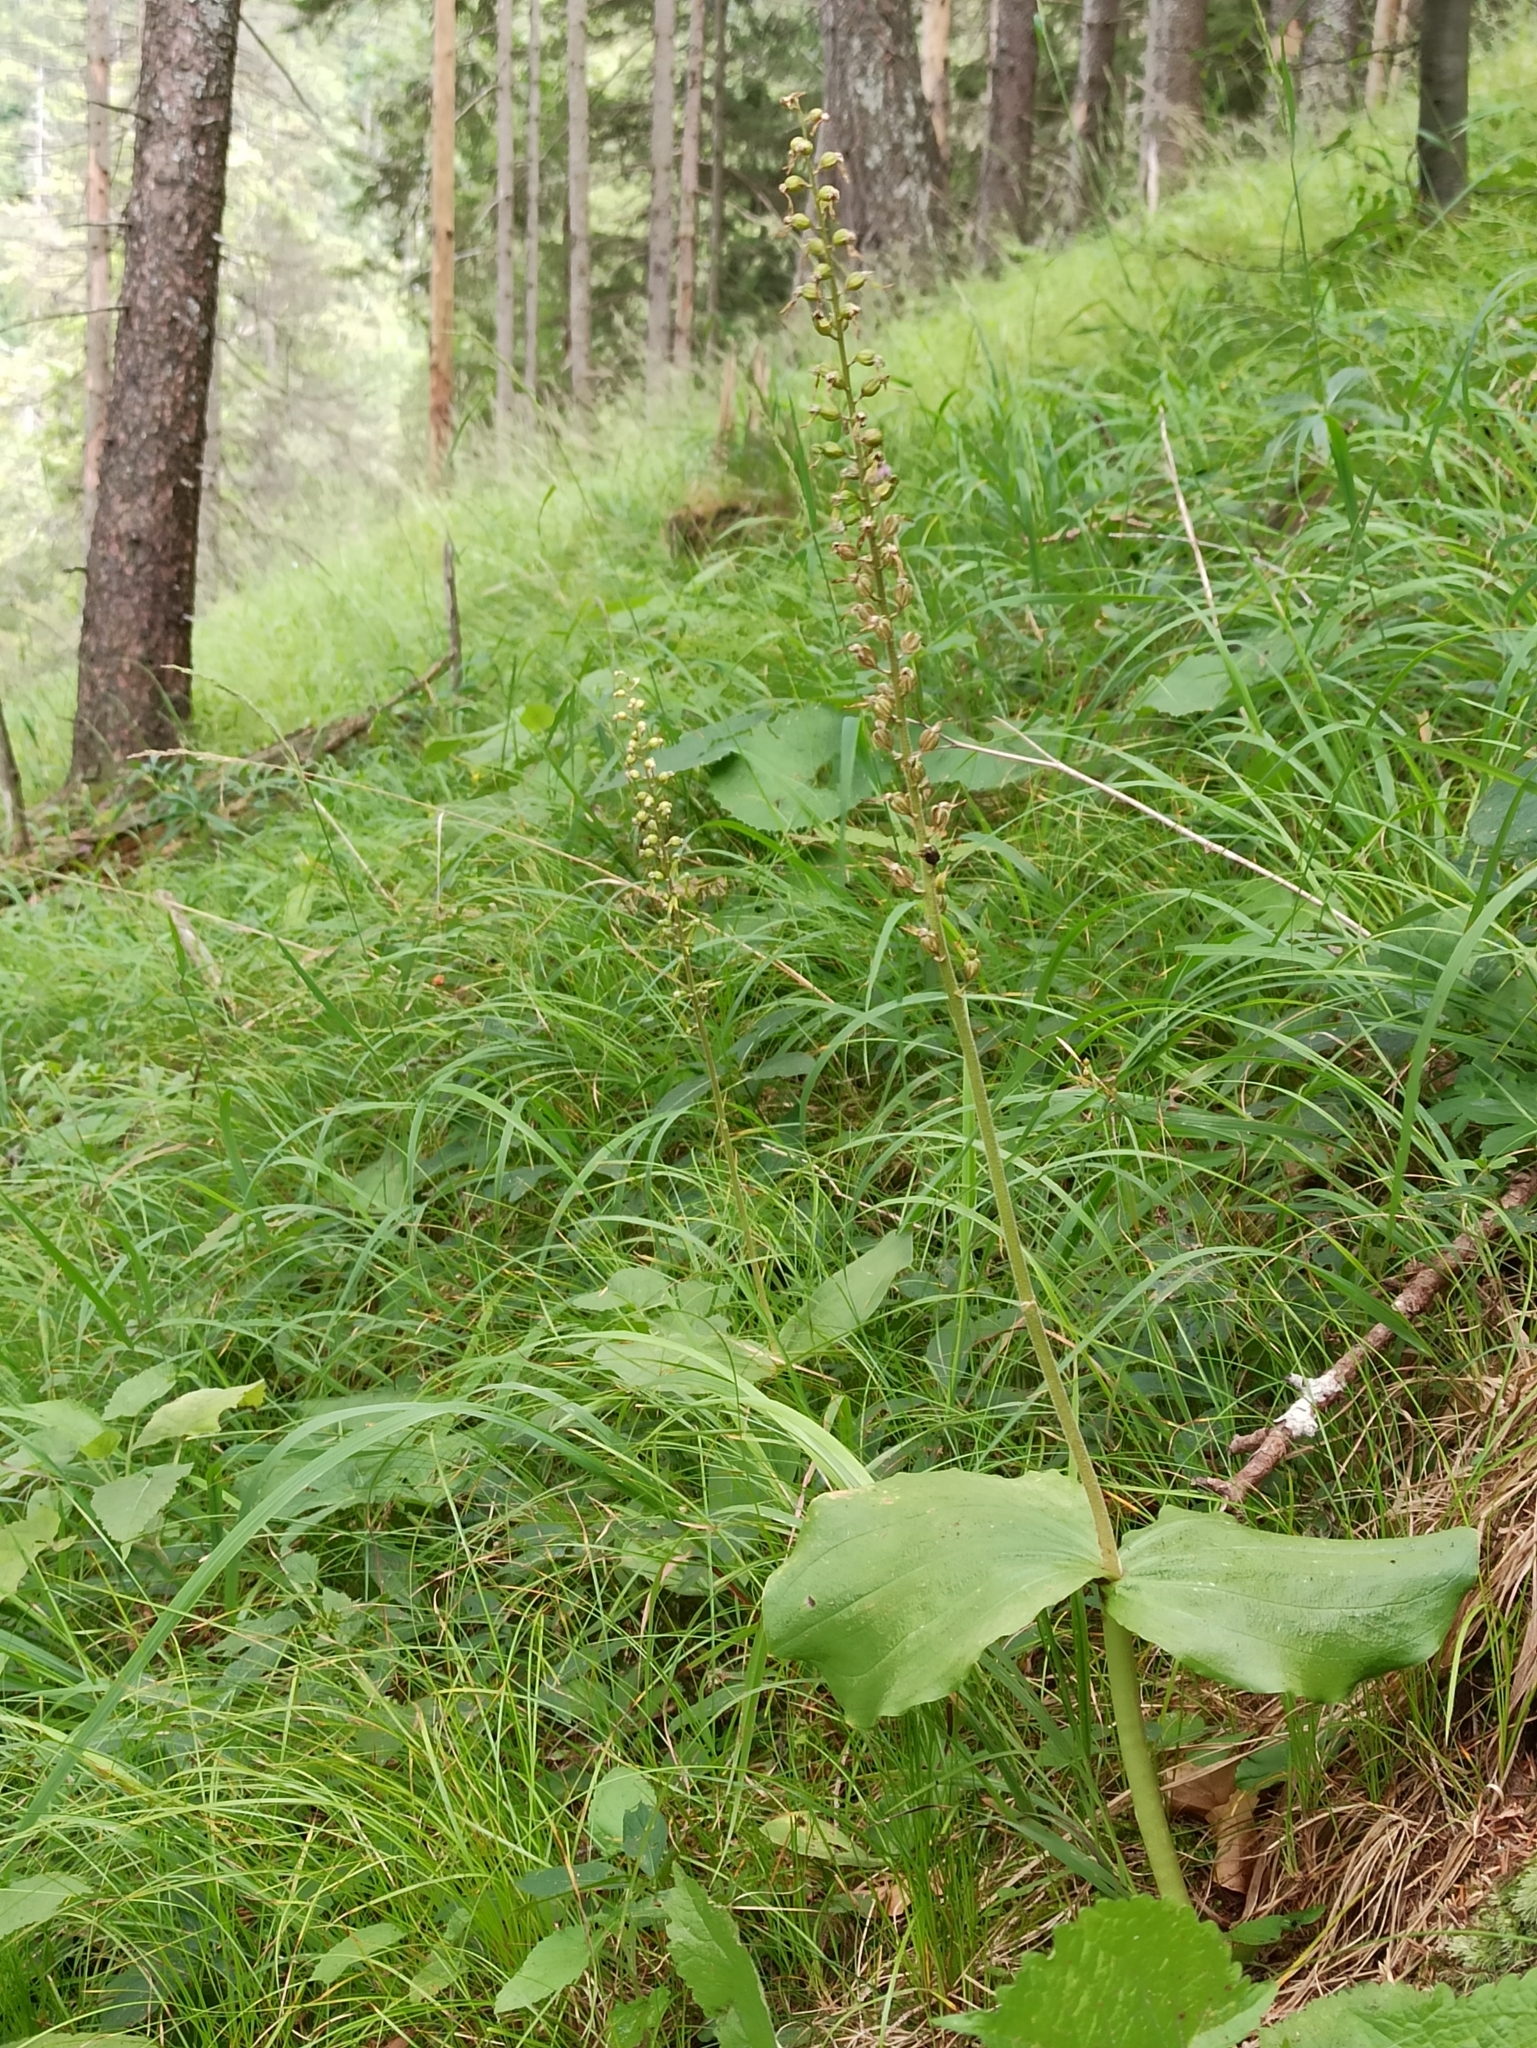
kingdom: Plantae
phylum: Tracheophyta
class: Liliopsida
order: Asparagales
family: Orchidaceae
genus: Neottia
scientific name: Neottia ovata
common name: Common twayblade
